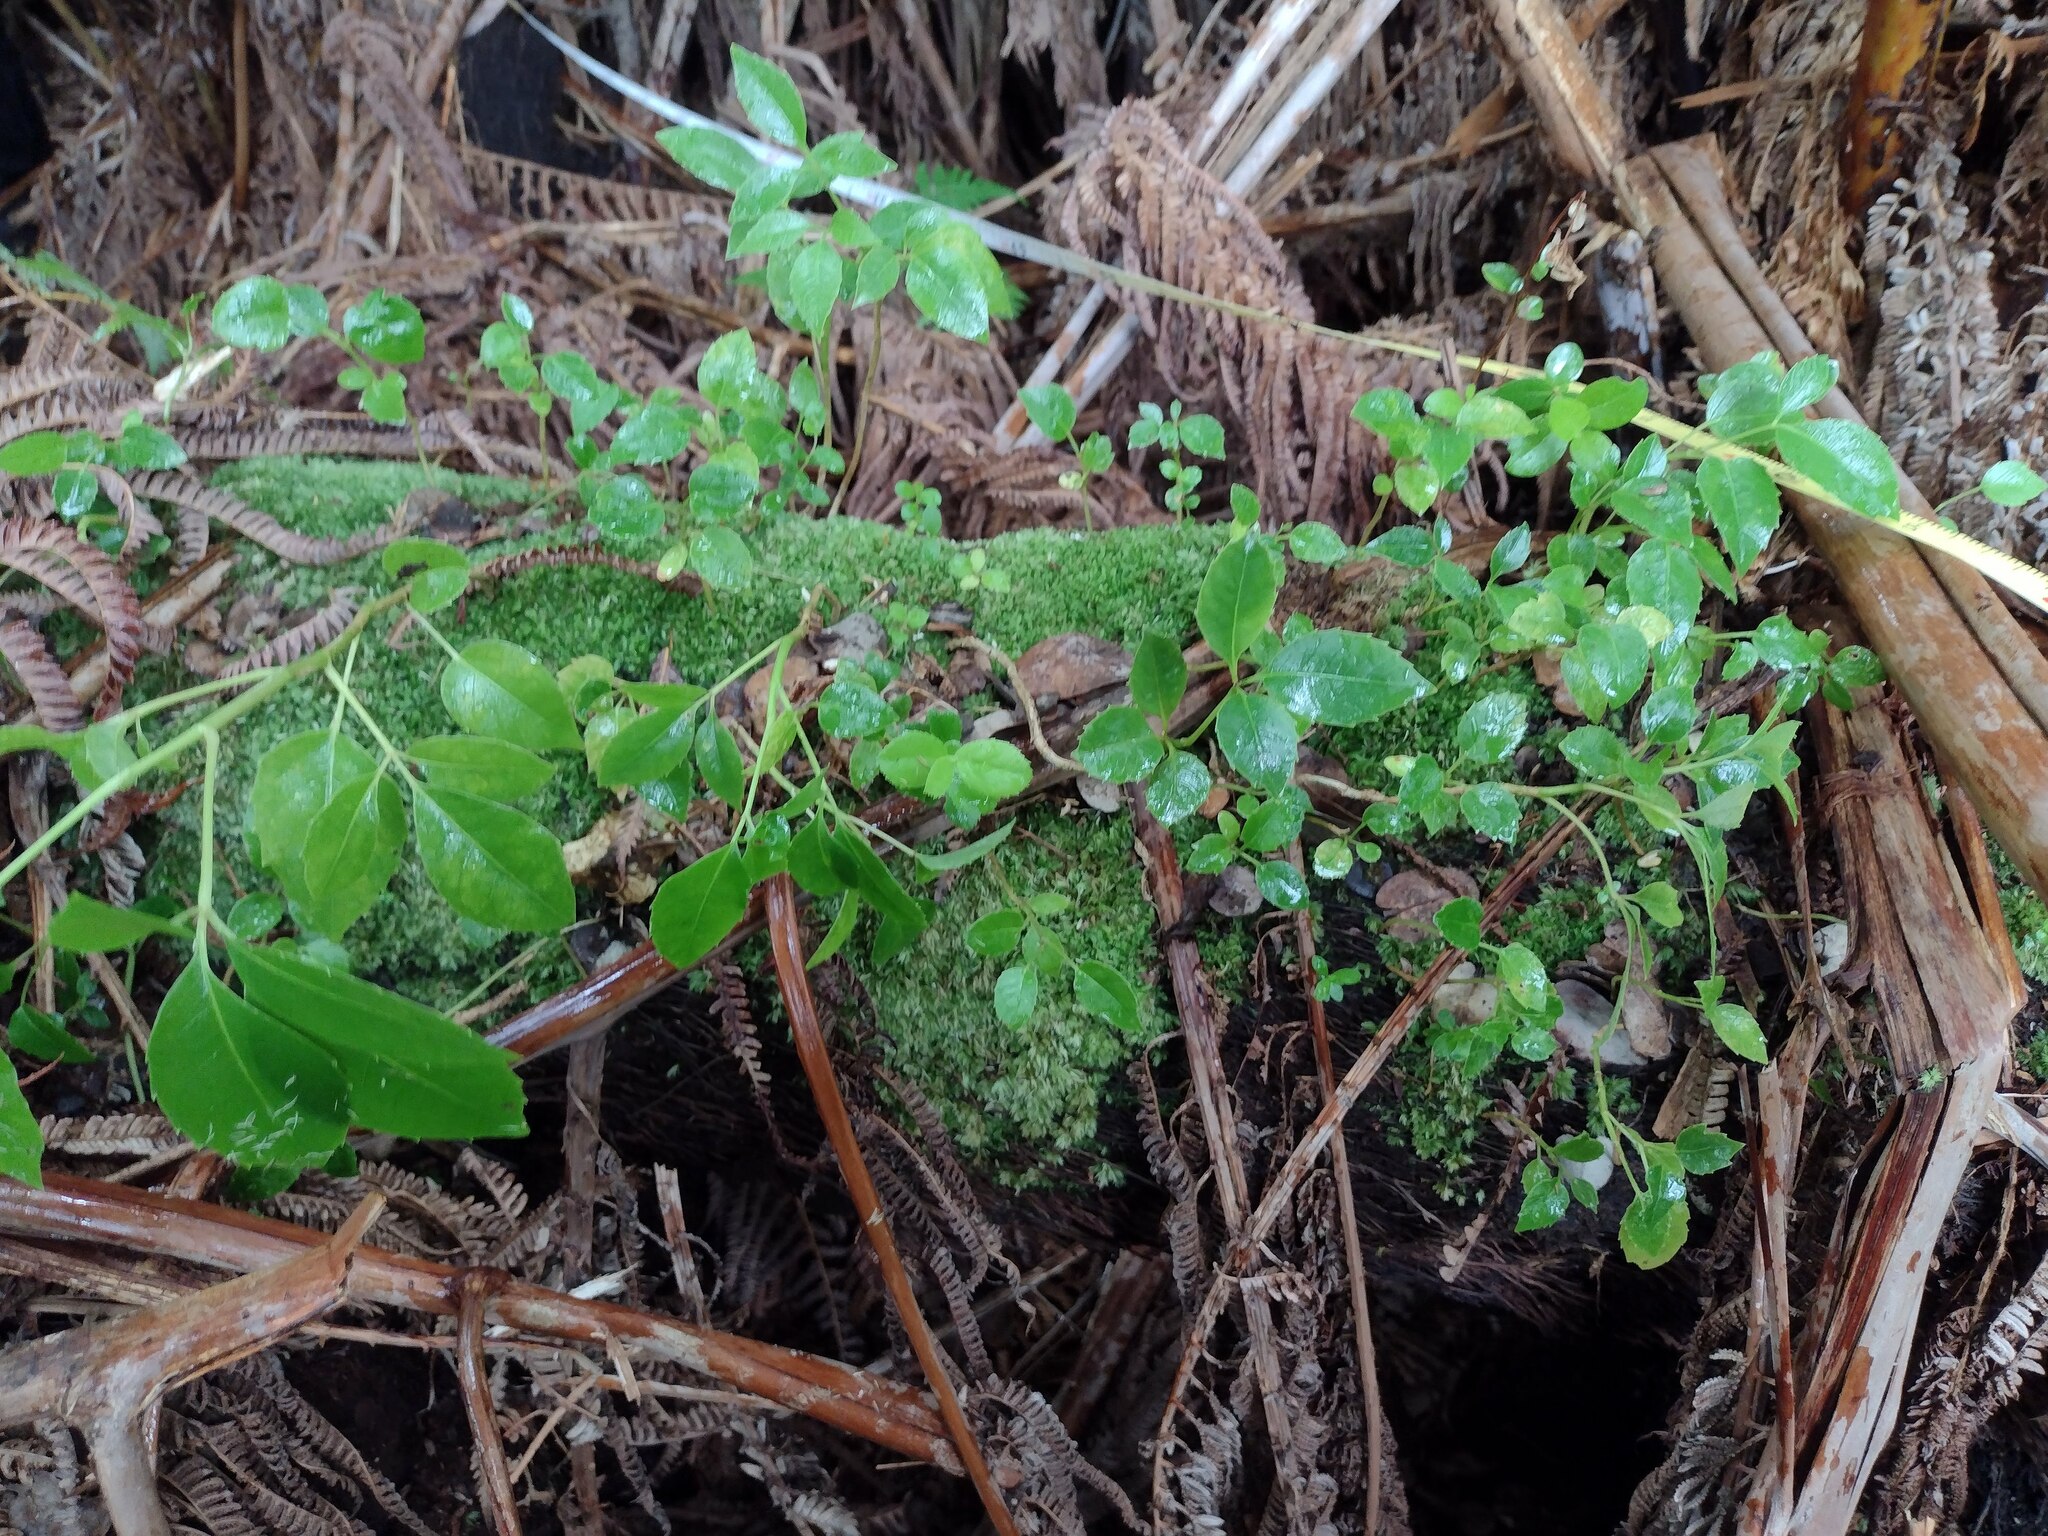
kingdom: Plantae
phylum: Tracheophyta
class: Magnoliopsida
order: Apiales
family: Araliaceae
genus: Cheirodendron
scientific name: Cheirodendron trigynum
